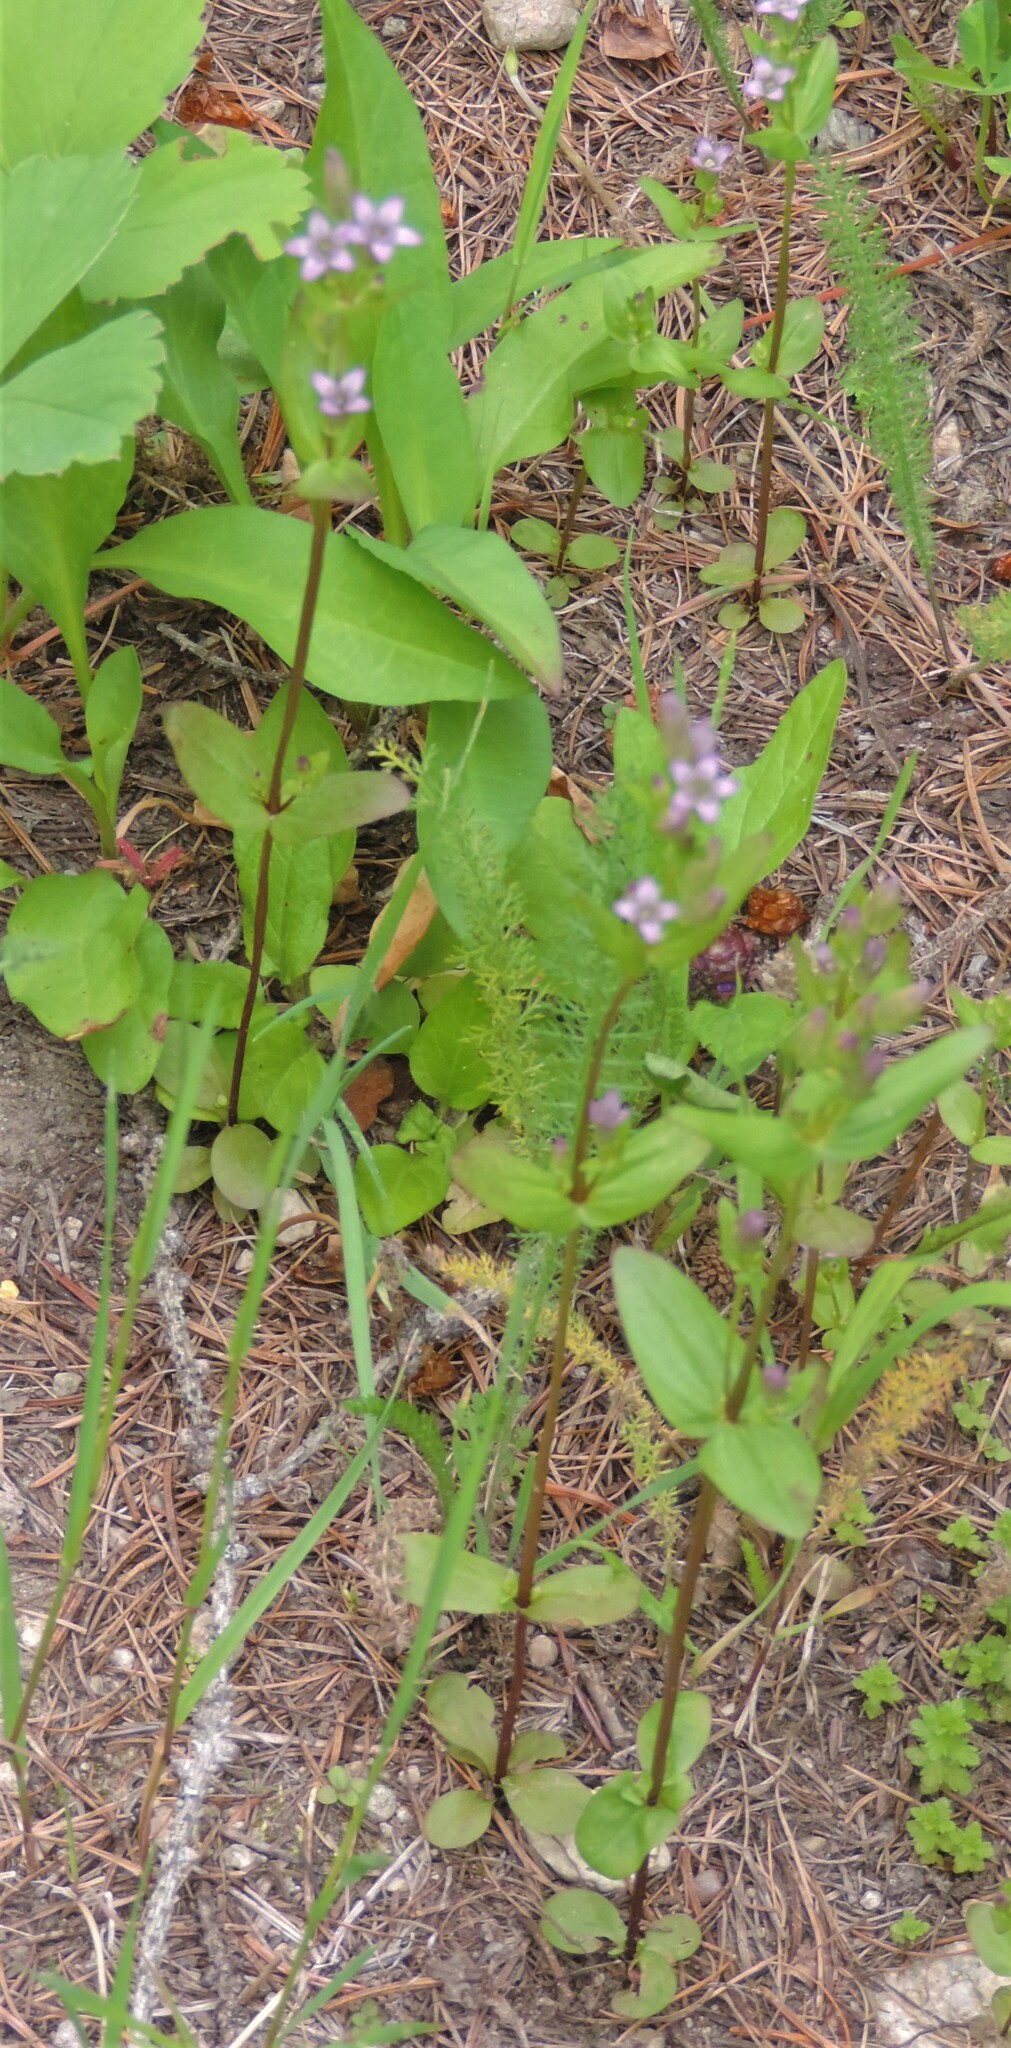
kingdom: Plantae
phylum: Tracheophyta
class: Magnoliopsida
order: Gentianales
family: Gentianaceae
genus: Gentianella
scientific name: Gentianella amarella
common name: Autumn gentian
